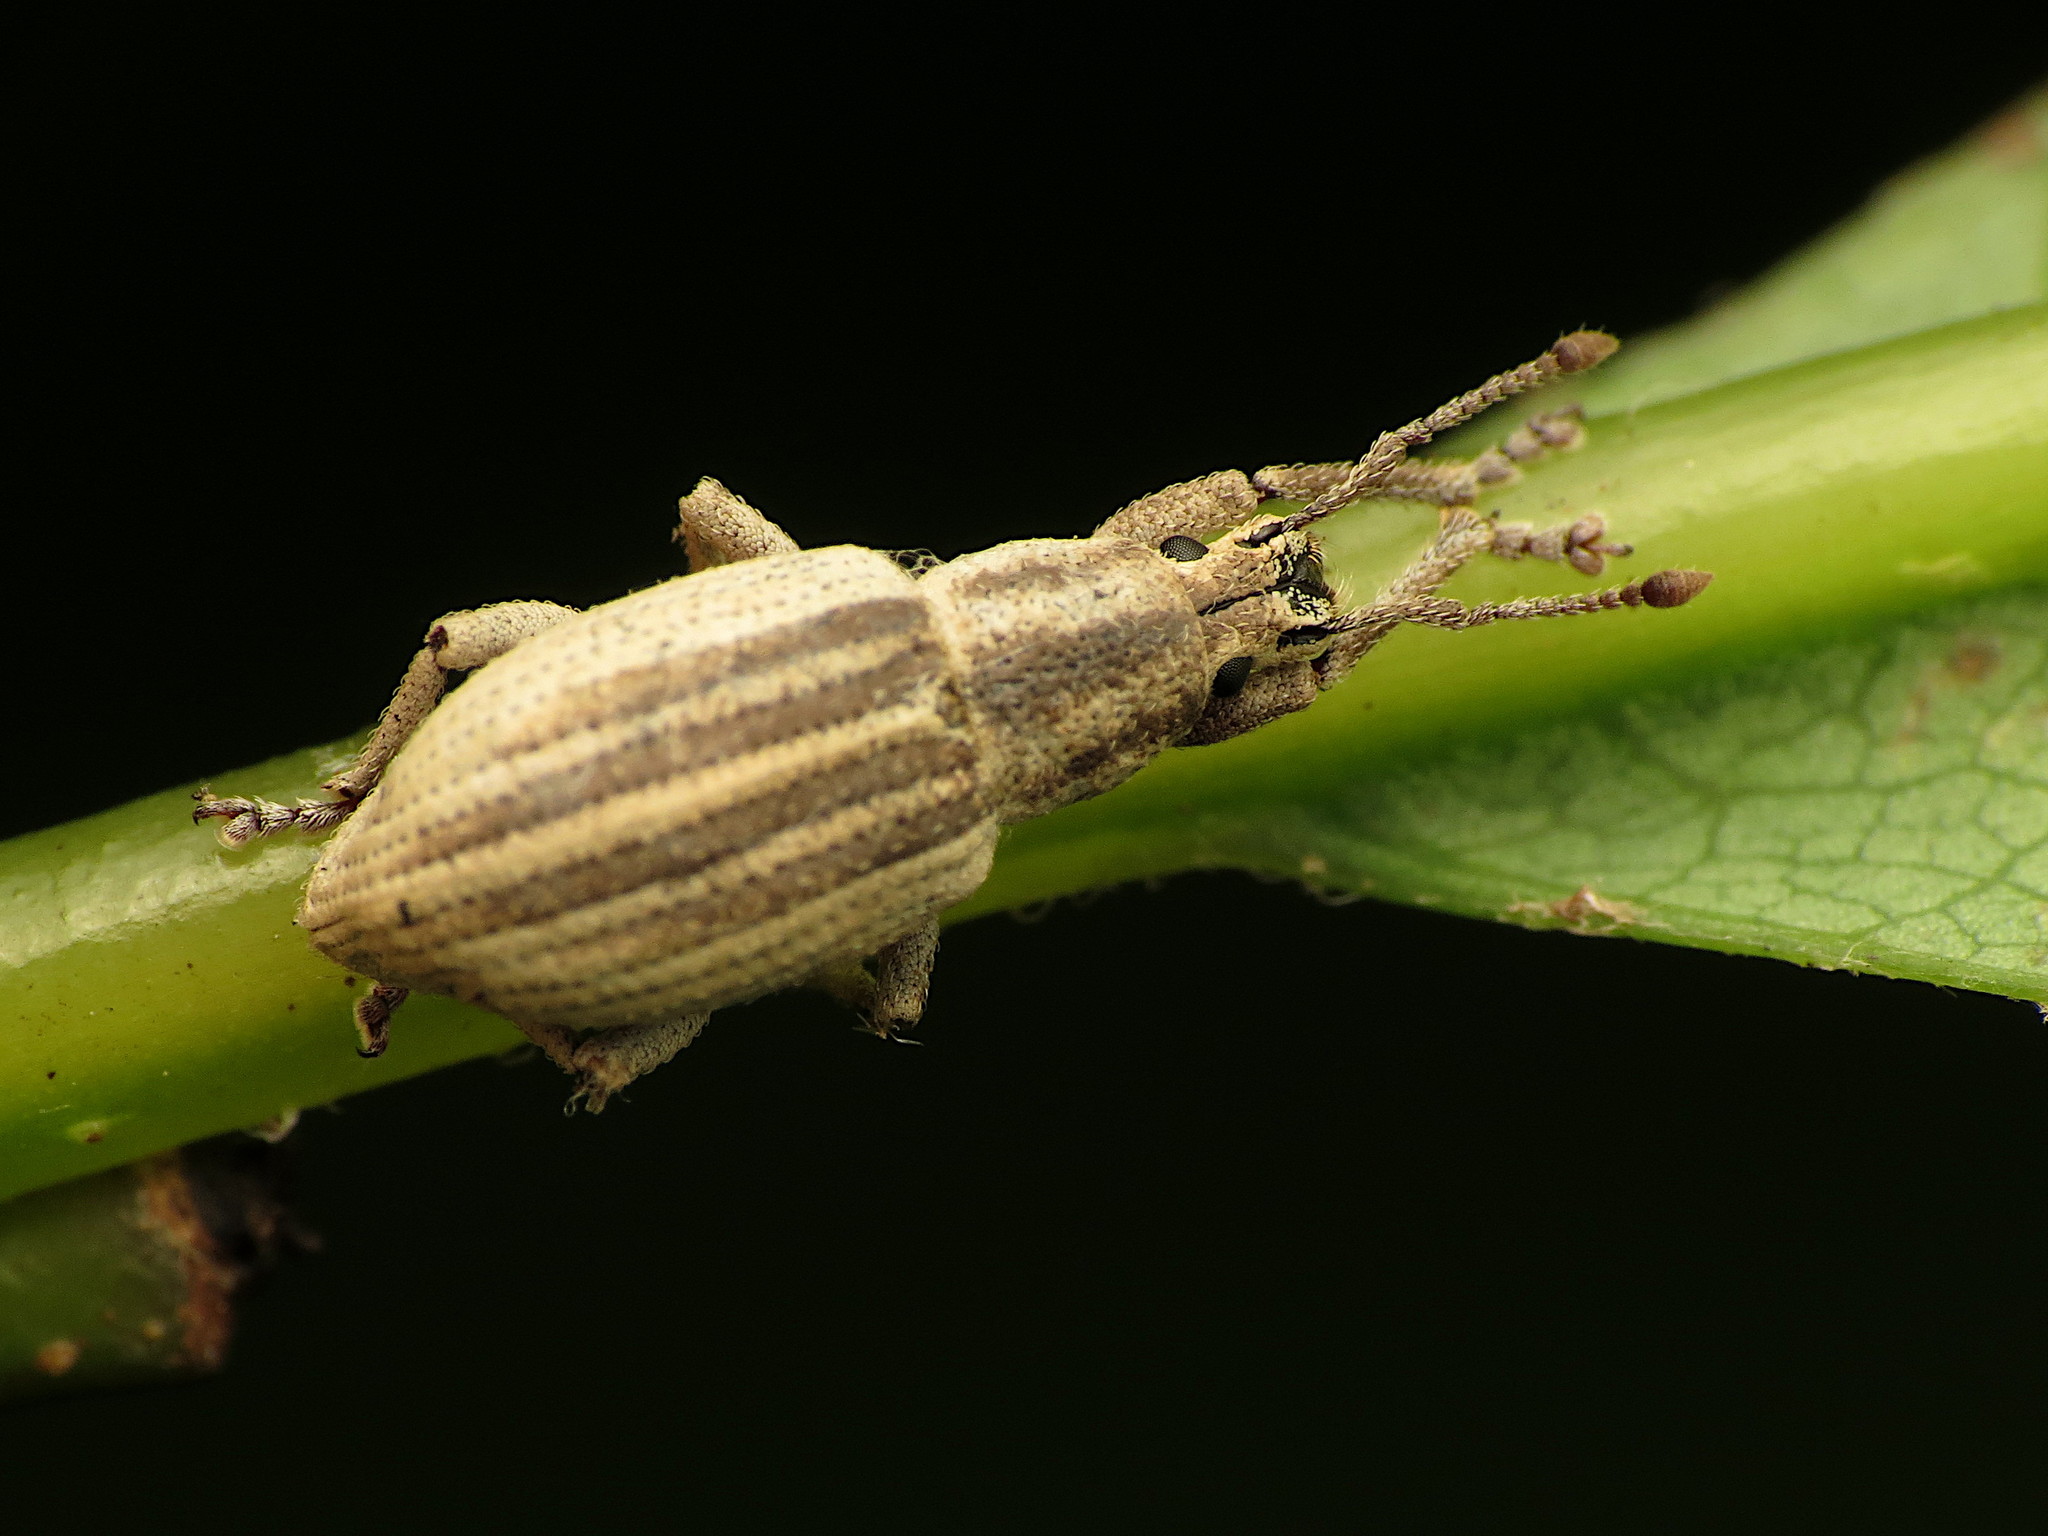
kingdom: Animalia
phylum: Arthropoda
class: Insecta
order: Coleoptera
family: Curculionidae
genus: Aphrastus
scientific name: Aphrastus taeniatus
